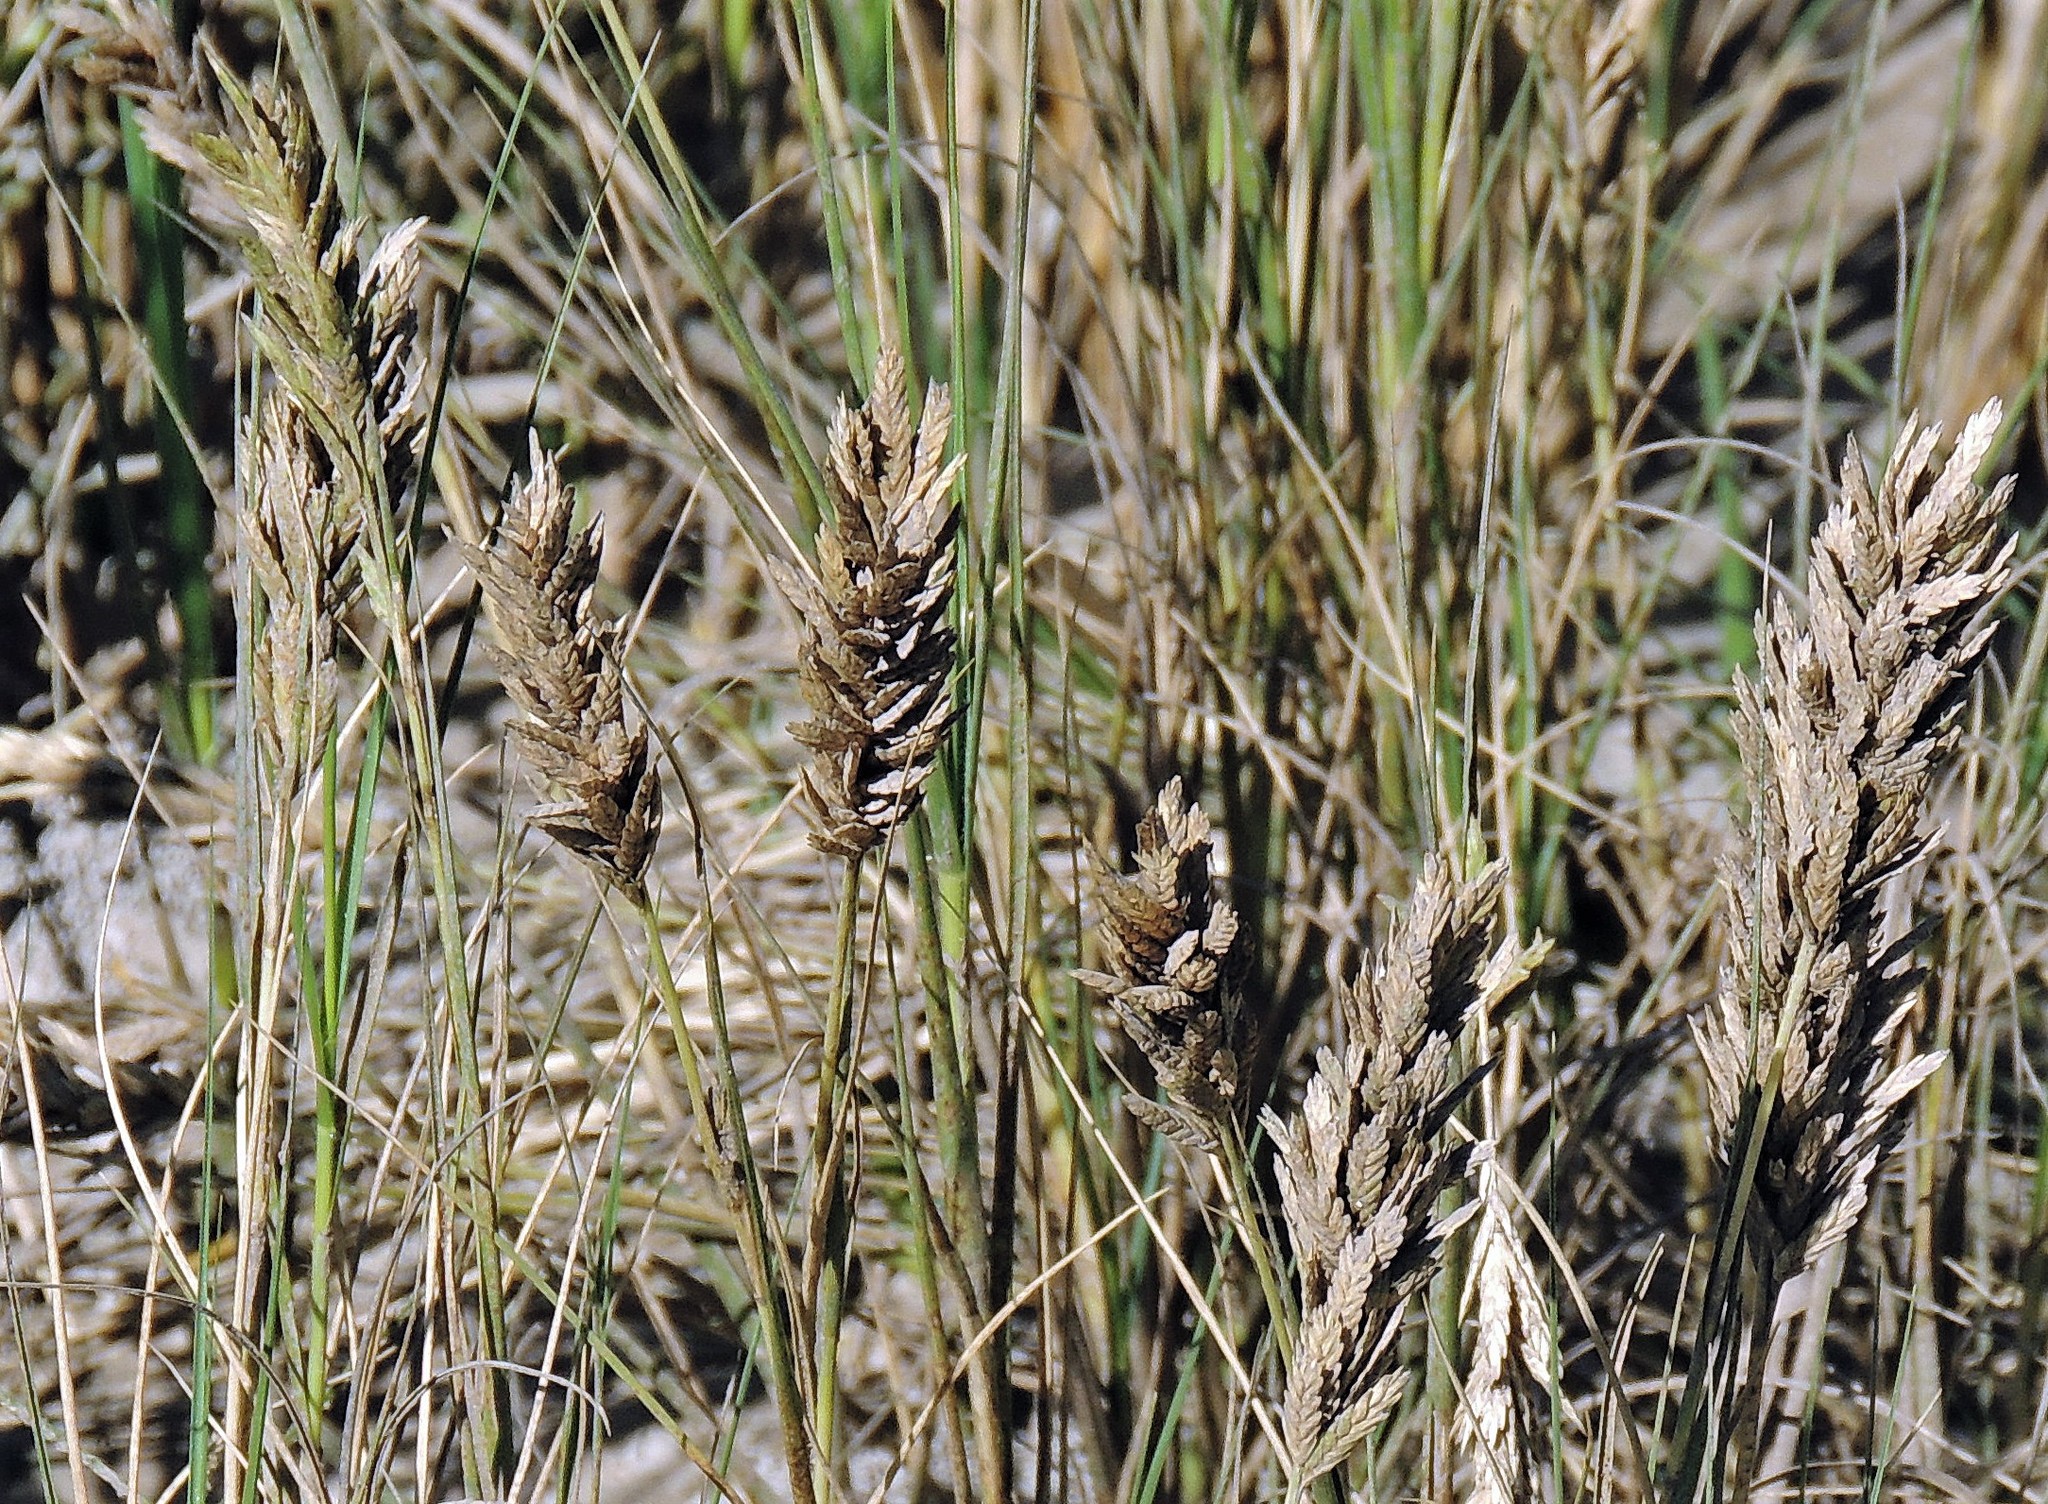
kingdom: Plantae
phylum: Tracheophyta
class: Liliopsida
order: Poales
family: Poaceae
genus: Distichlis
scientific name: Distichlis spicata
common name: Saltgrass
